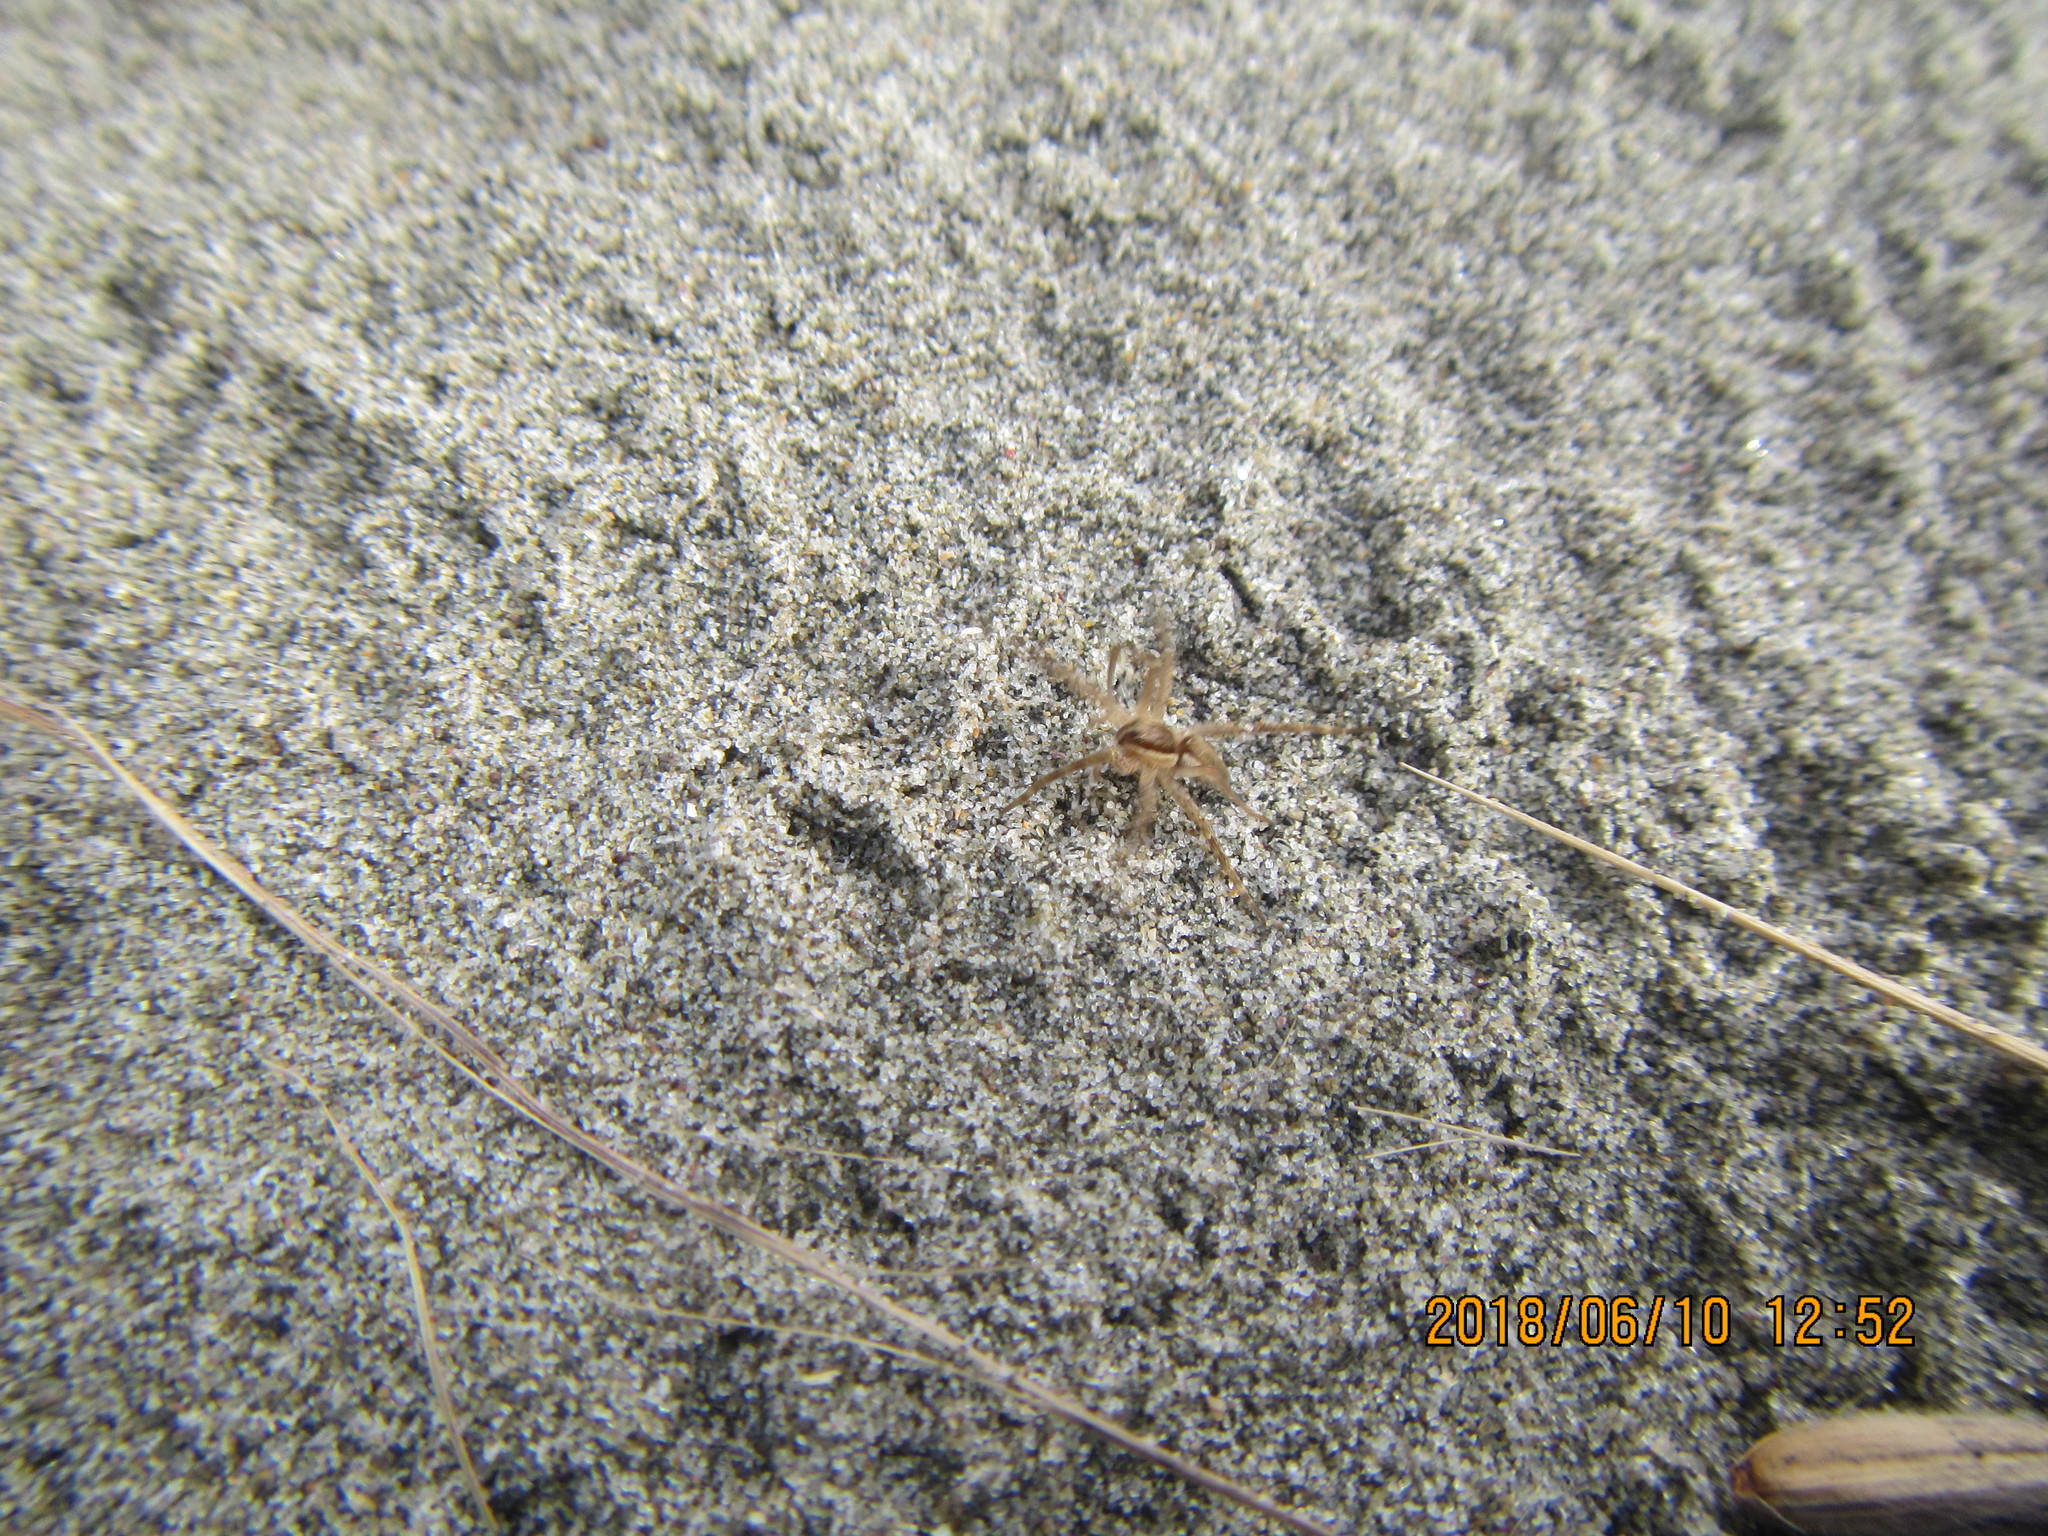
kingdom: Animalia
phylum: Arthropoda
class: Arachnida
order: Araneae
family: Pisauridae
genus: Dolomedes
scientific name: Dolomedes minor
